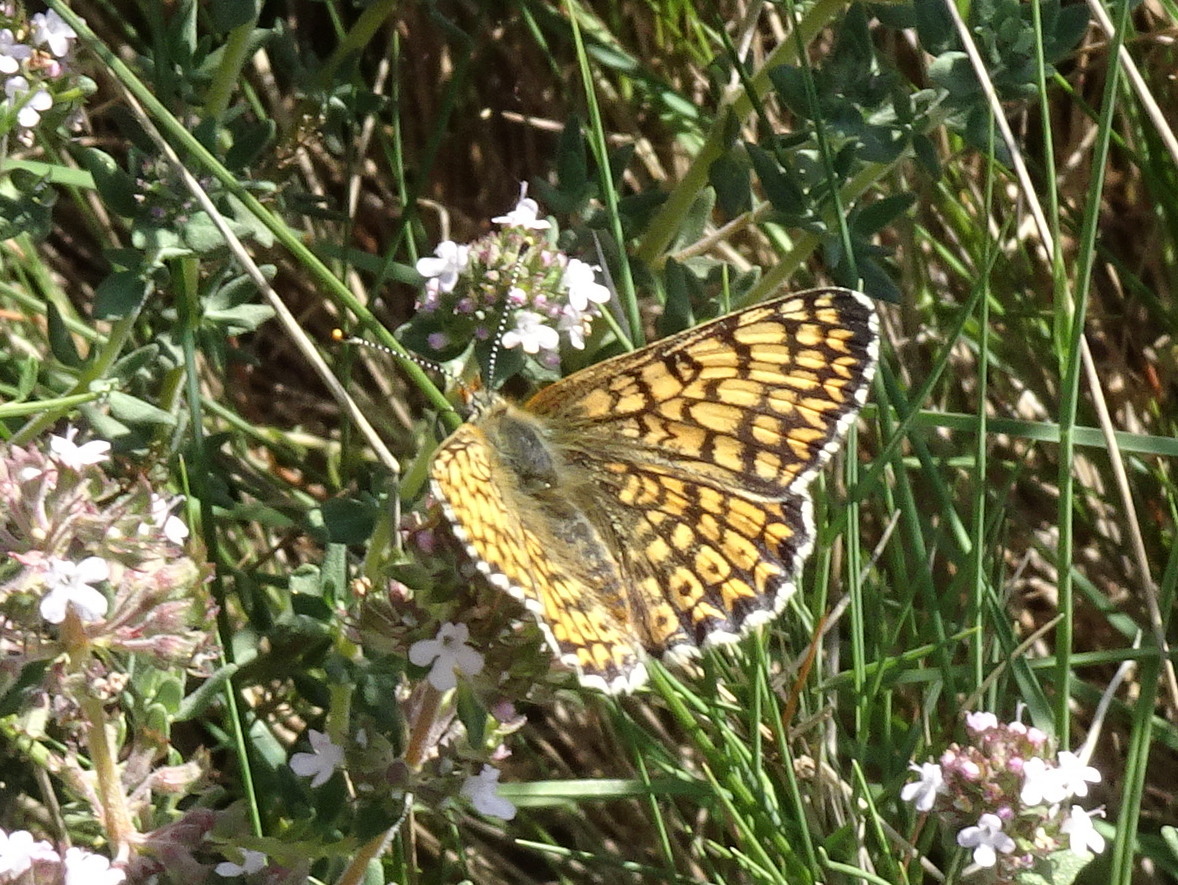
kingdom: Animalia
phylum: Arthropoda
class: Insecta
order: Lepidoptera
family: Nymphalidae
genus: Melitaea
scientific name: Melitaea cinxia
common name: Glanville fritillary
